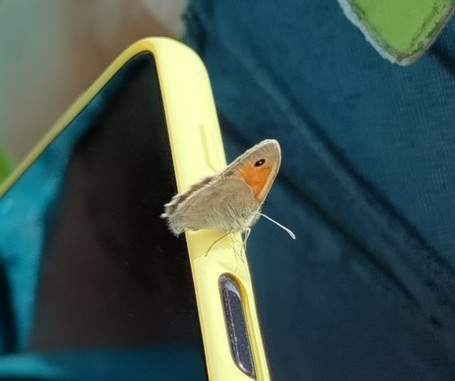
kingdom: Animalia
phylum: Arthropoda
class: Insecta
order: Lepidoptera
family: Nymphalidae
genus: Coenonympha
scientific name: Coenonympha pamphilus
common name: Small heath
